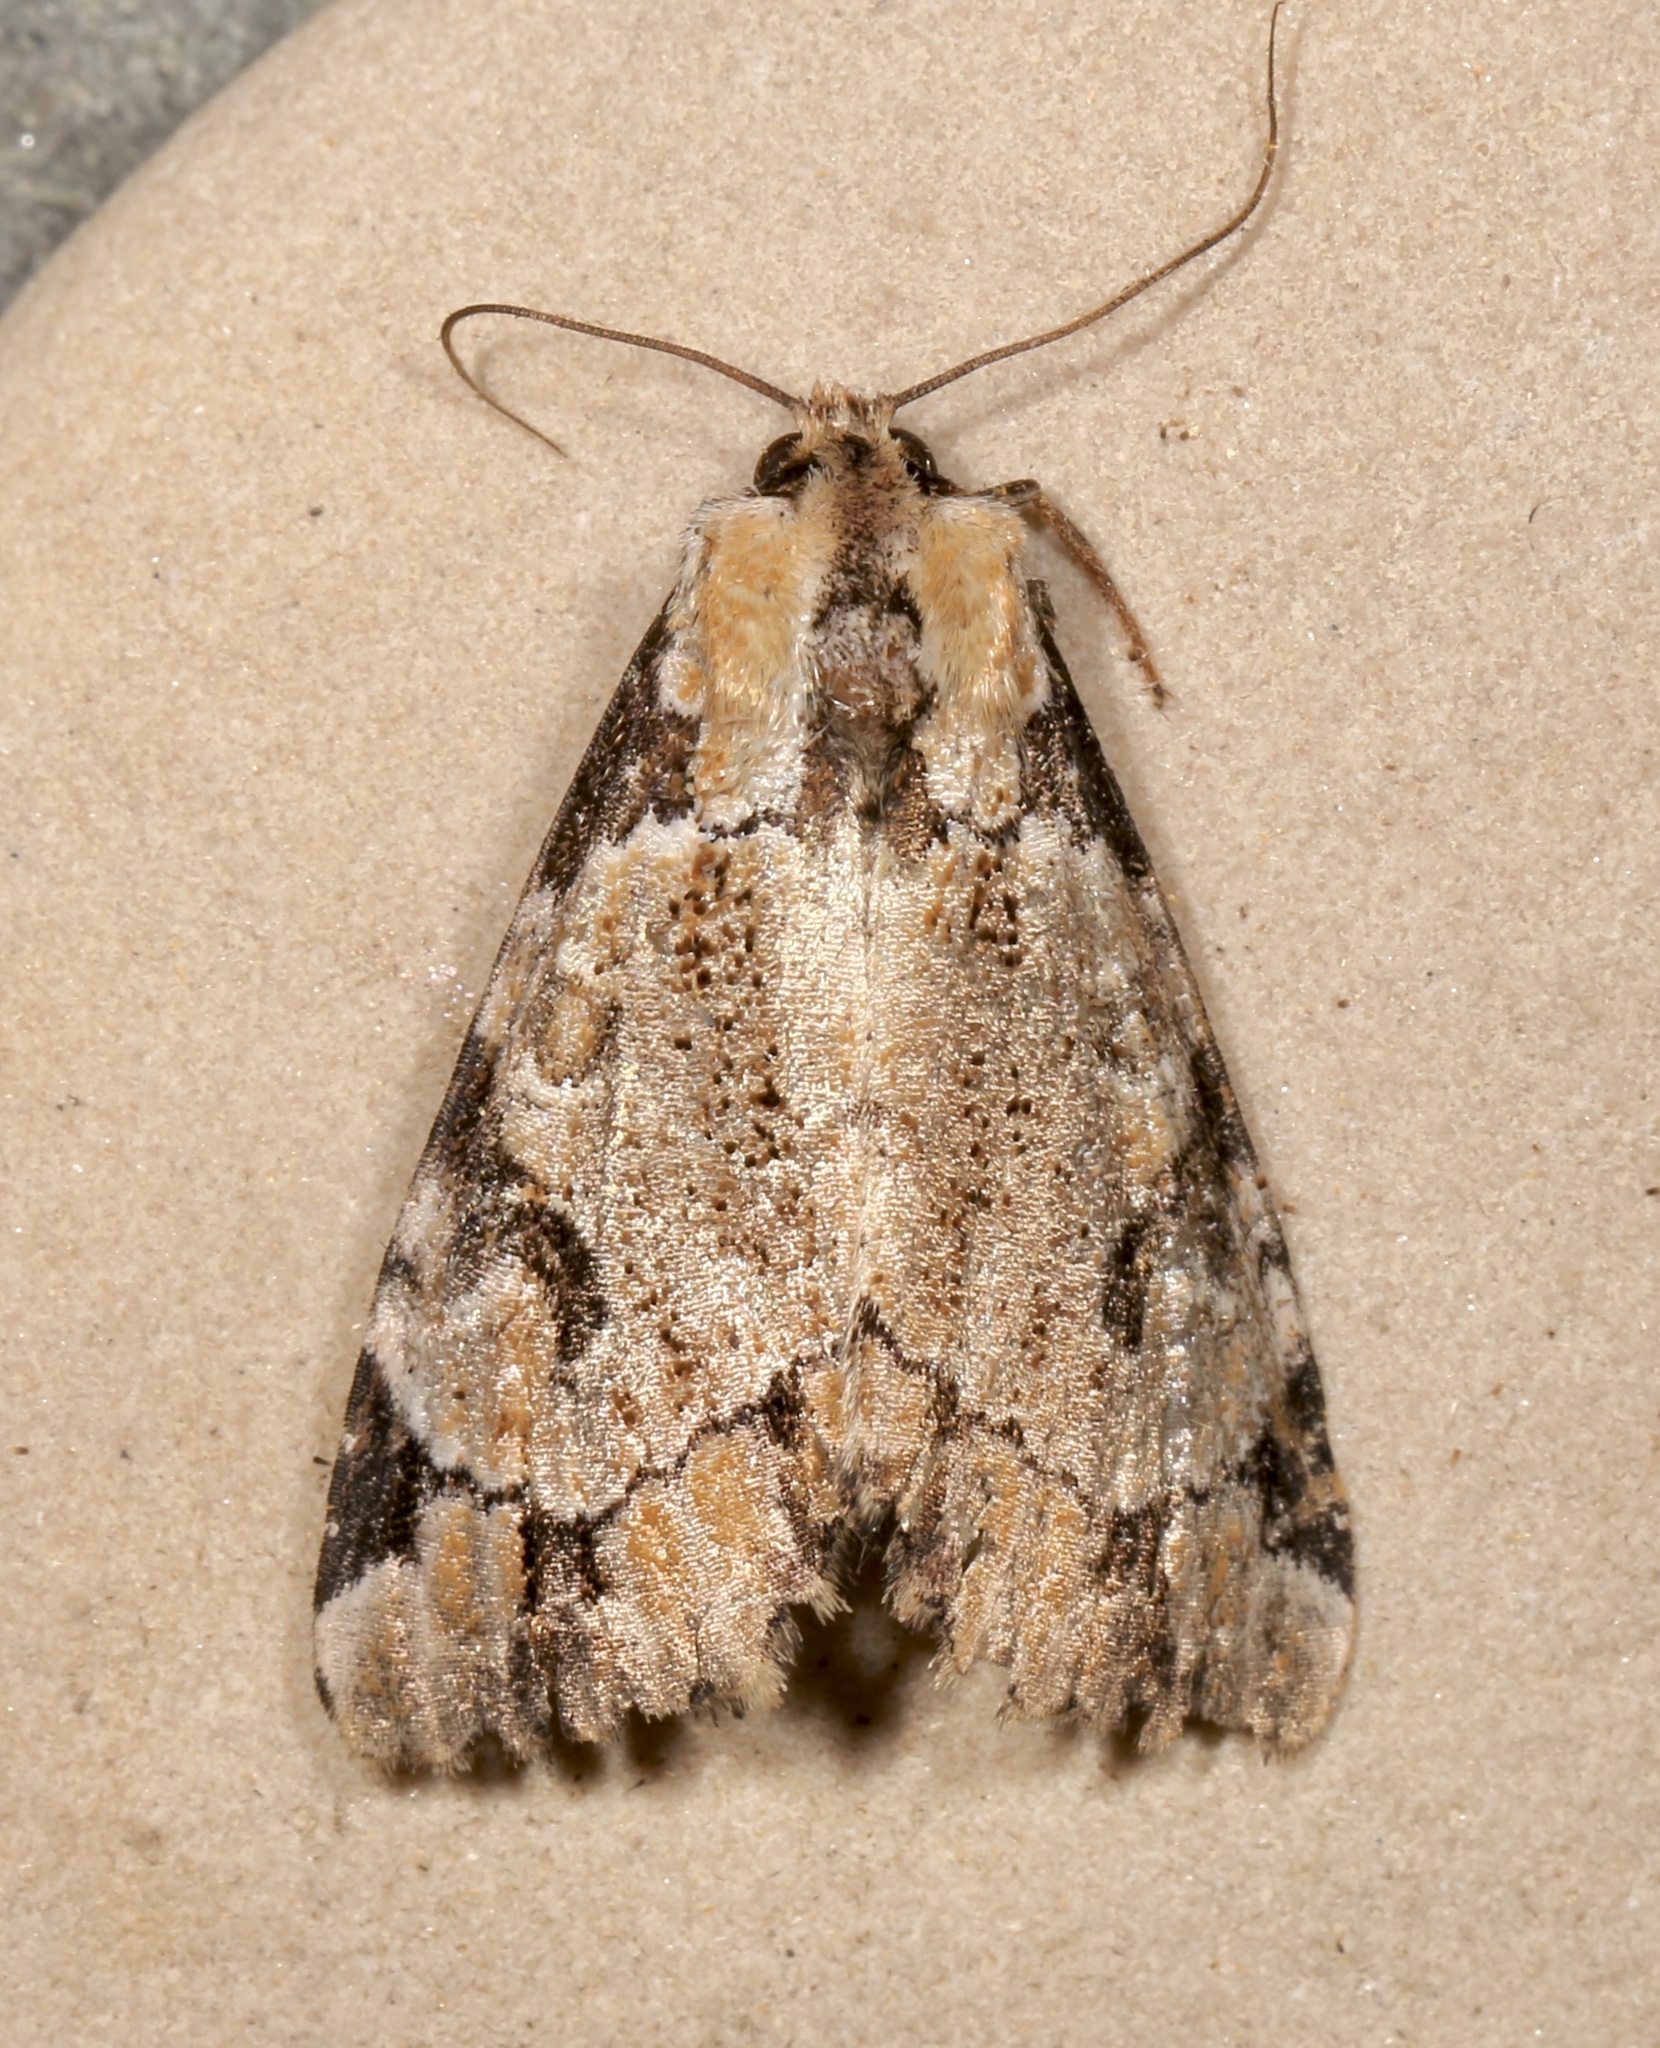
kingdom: Animalia
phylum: Arthropoda
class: Insecta
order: Lepidoptera
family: Noctuidae
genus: Stibaera
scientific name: Stibaera thyatiroides
